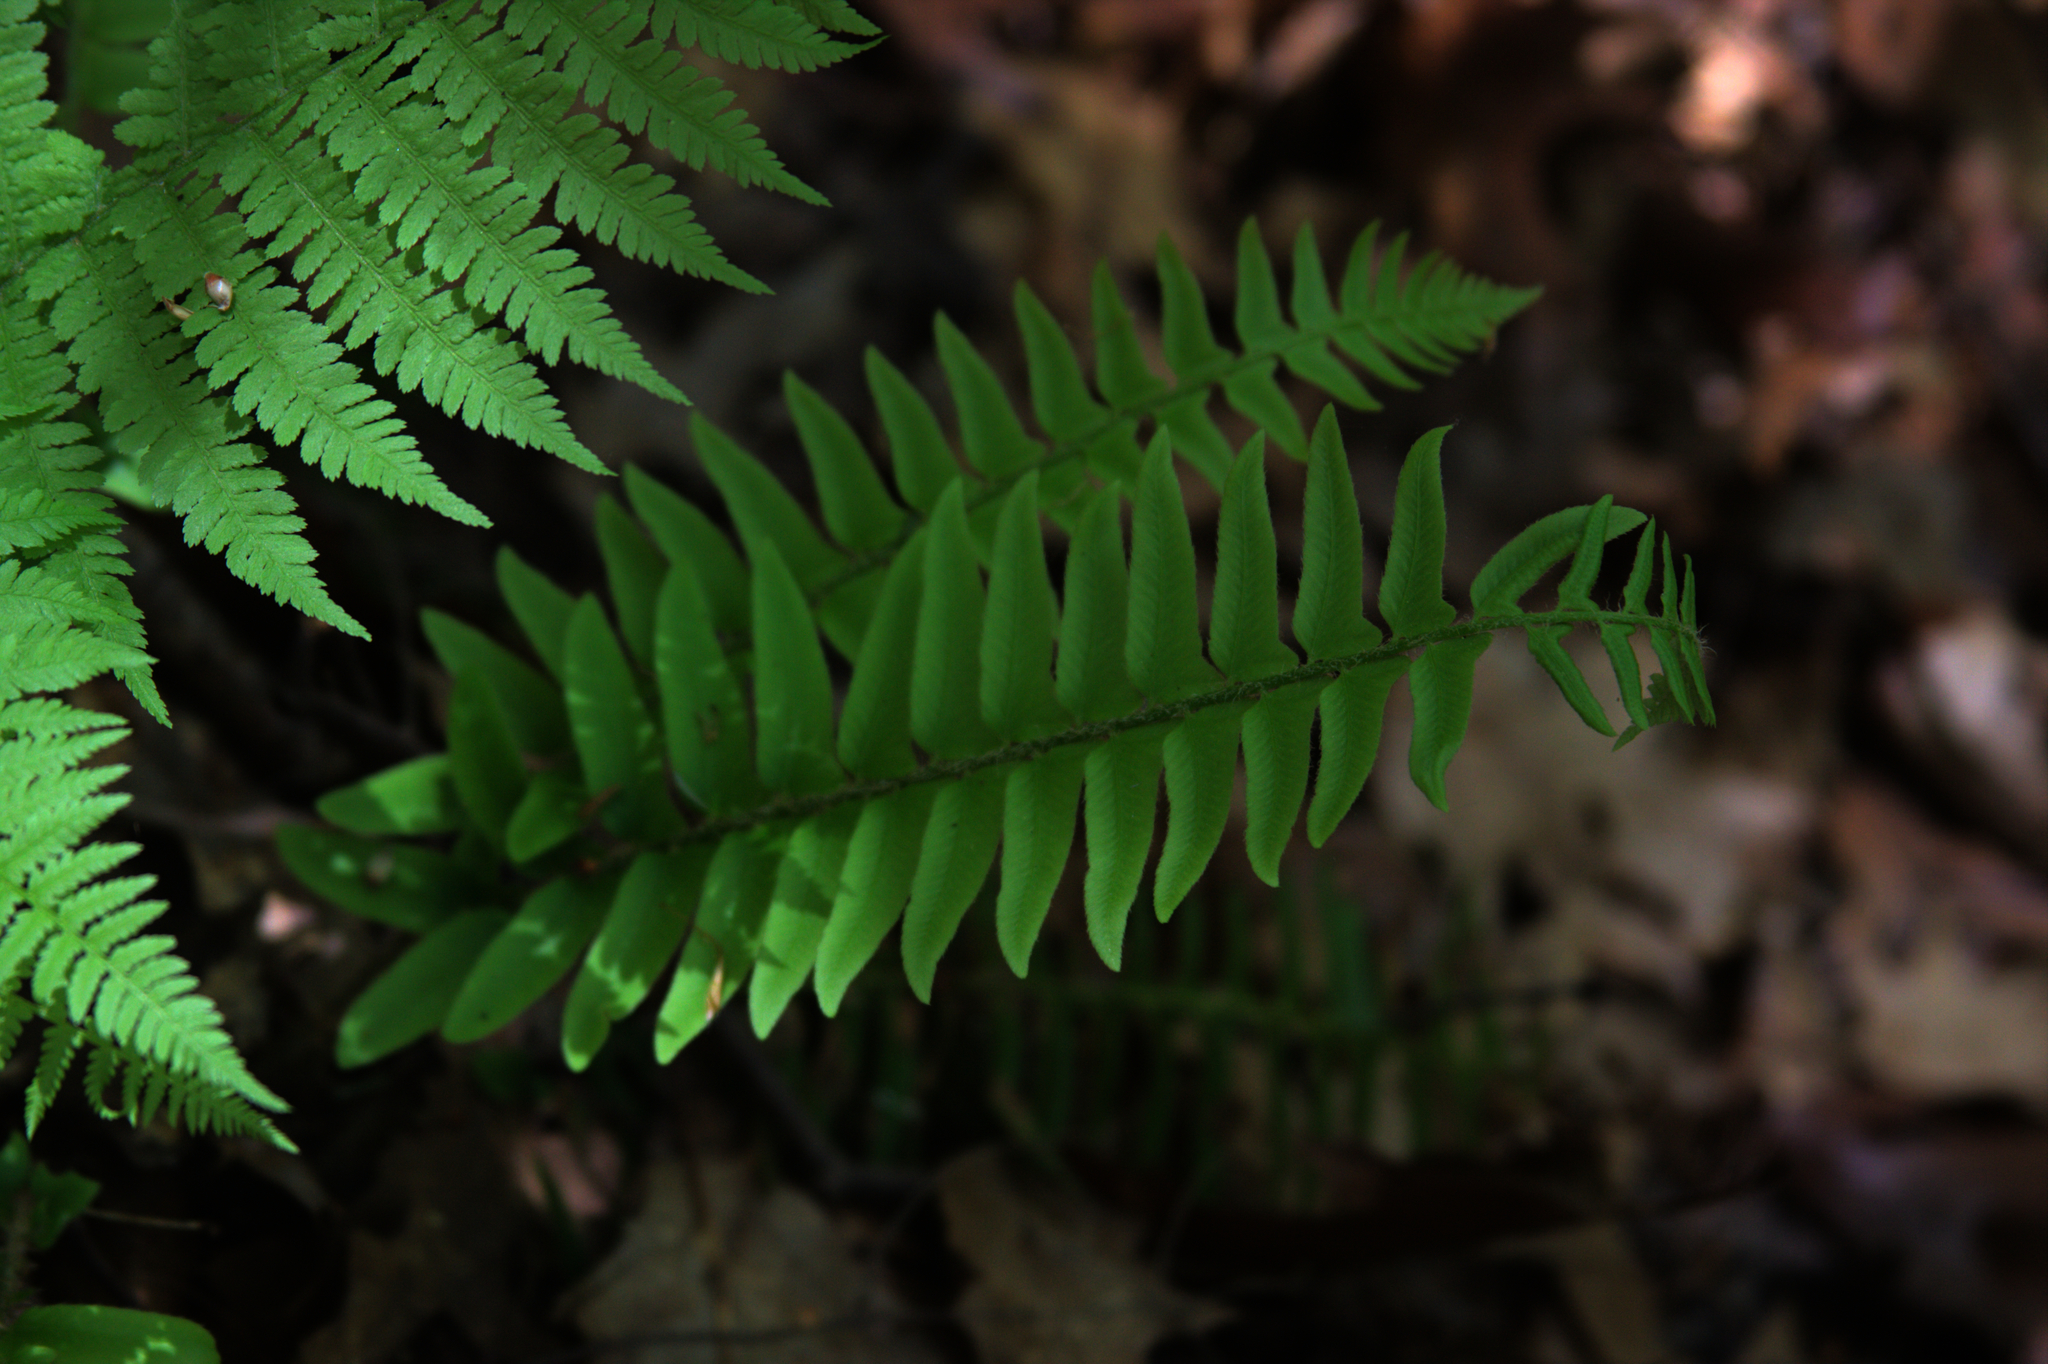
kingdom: Plantae
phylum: Tracheophyta
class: Polypodiopsida
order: Polypodiales
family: Dryopteridaceae
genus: Polystichum
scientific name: Polystichum acrostichoides
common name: Christmas fern
